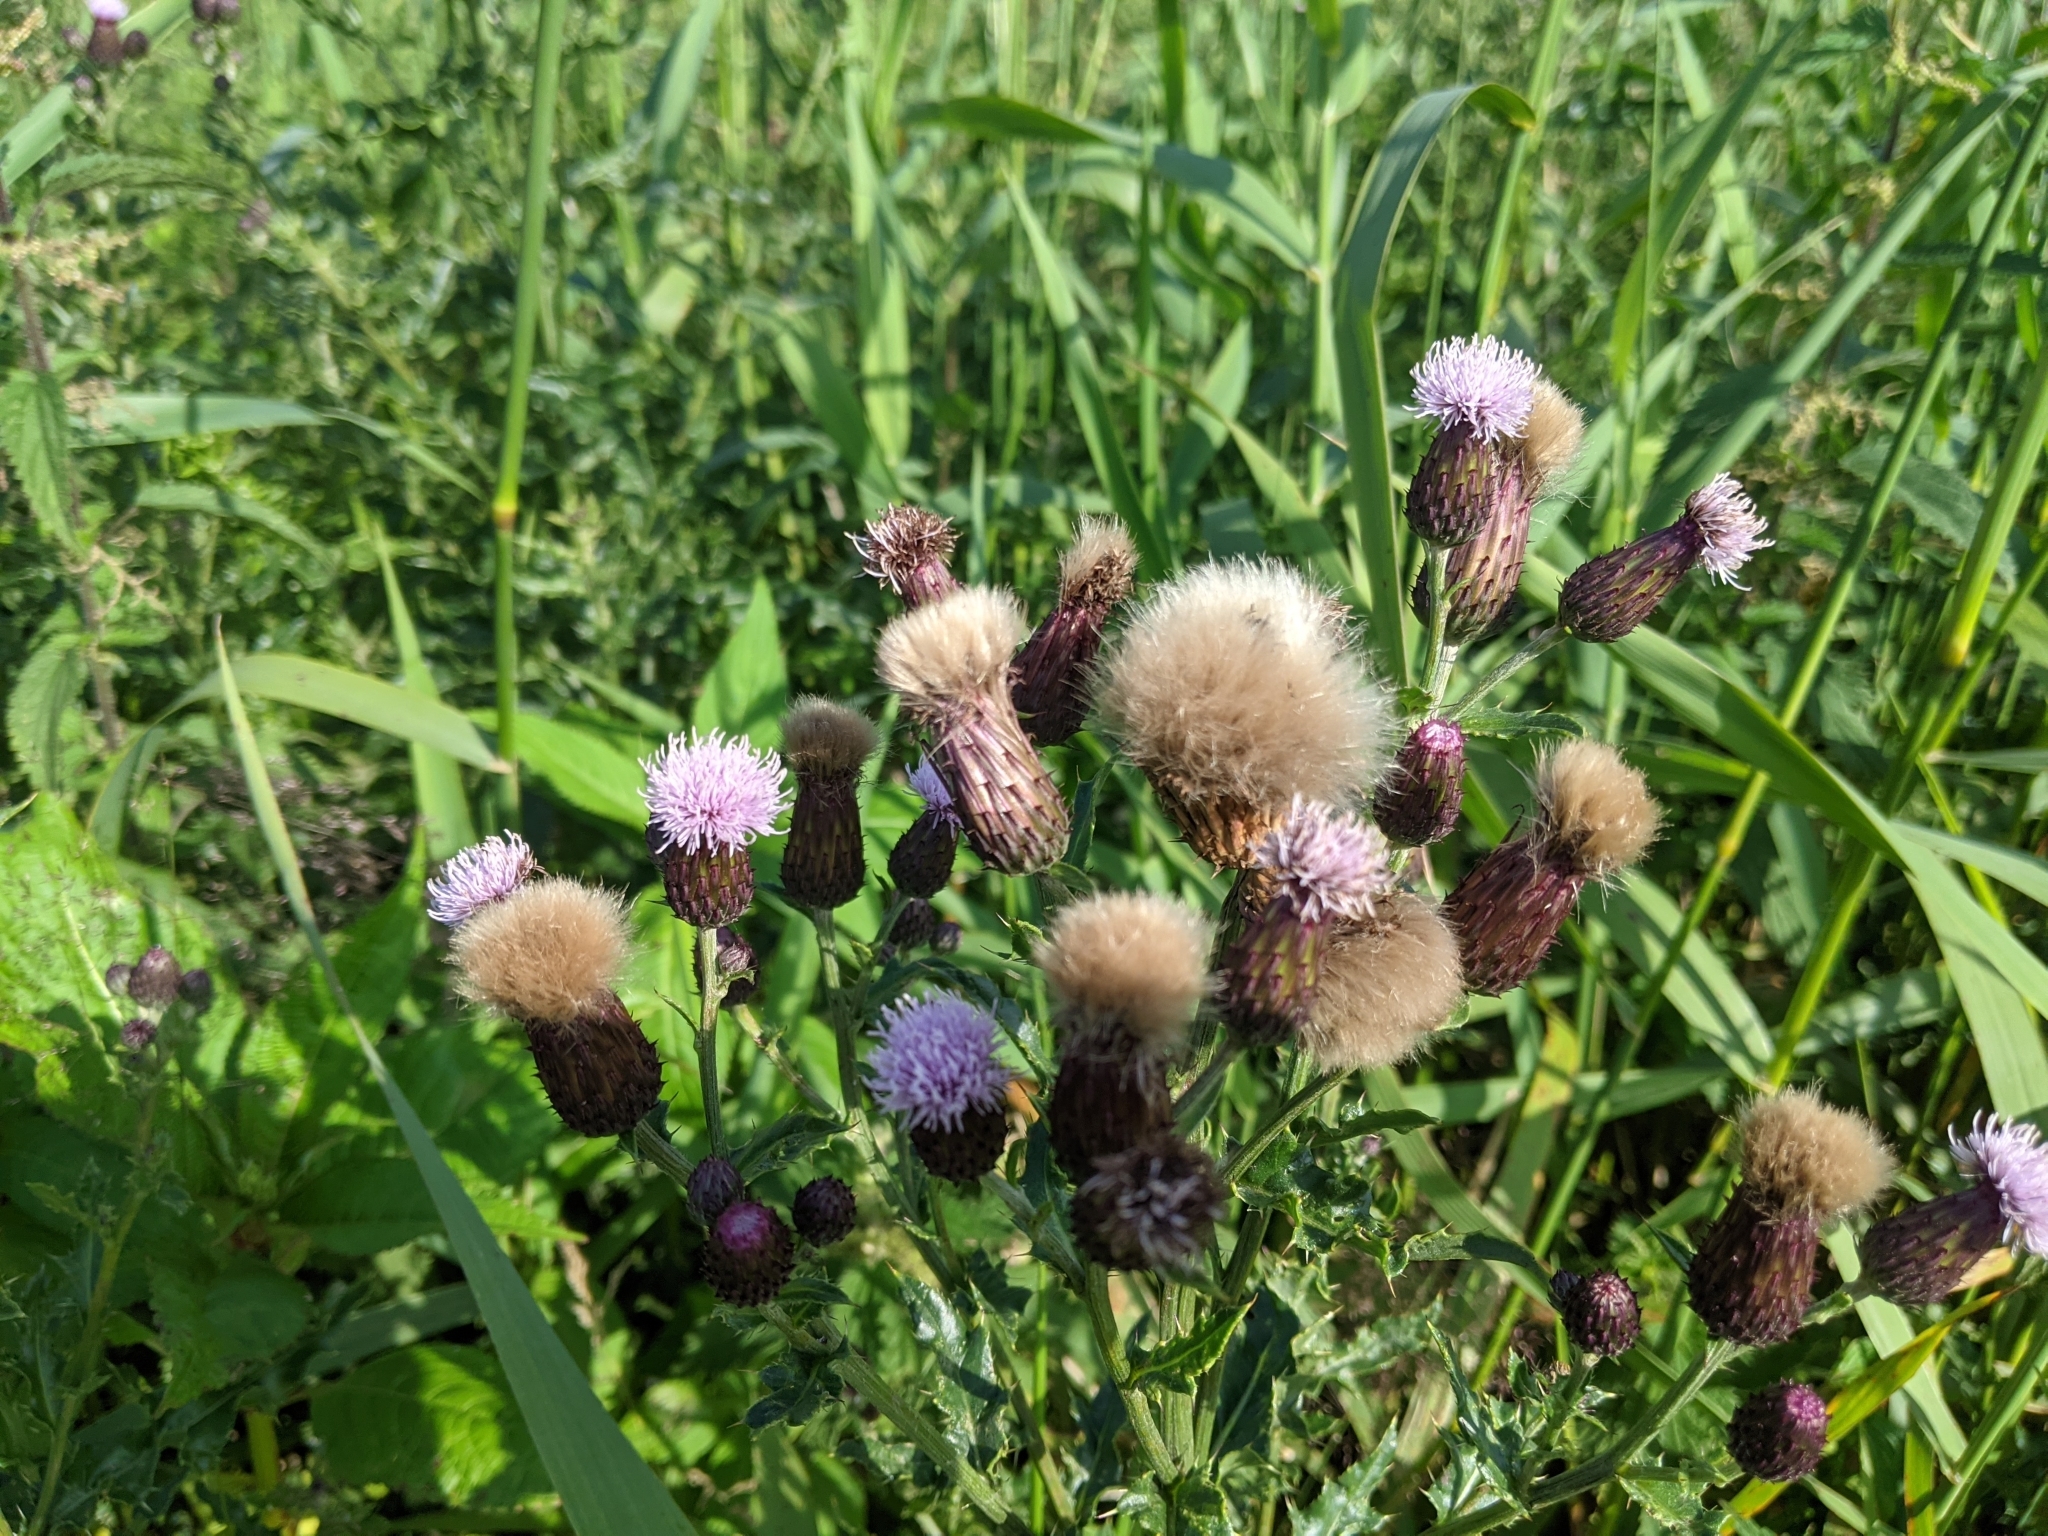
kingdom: Plantae
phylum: Tracheophyta
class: Magnoliopsida
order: Asterales
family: Asteraceae
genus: Cirsium
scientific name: Cirsium arvense
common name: Creeping thistle
